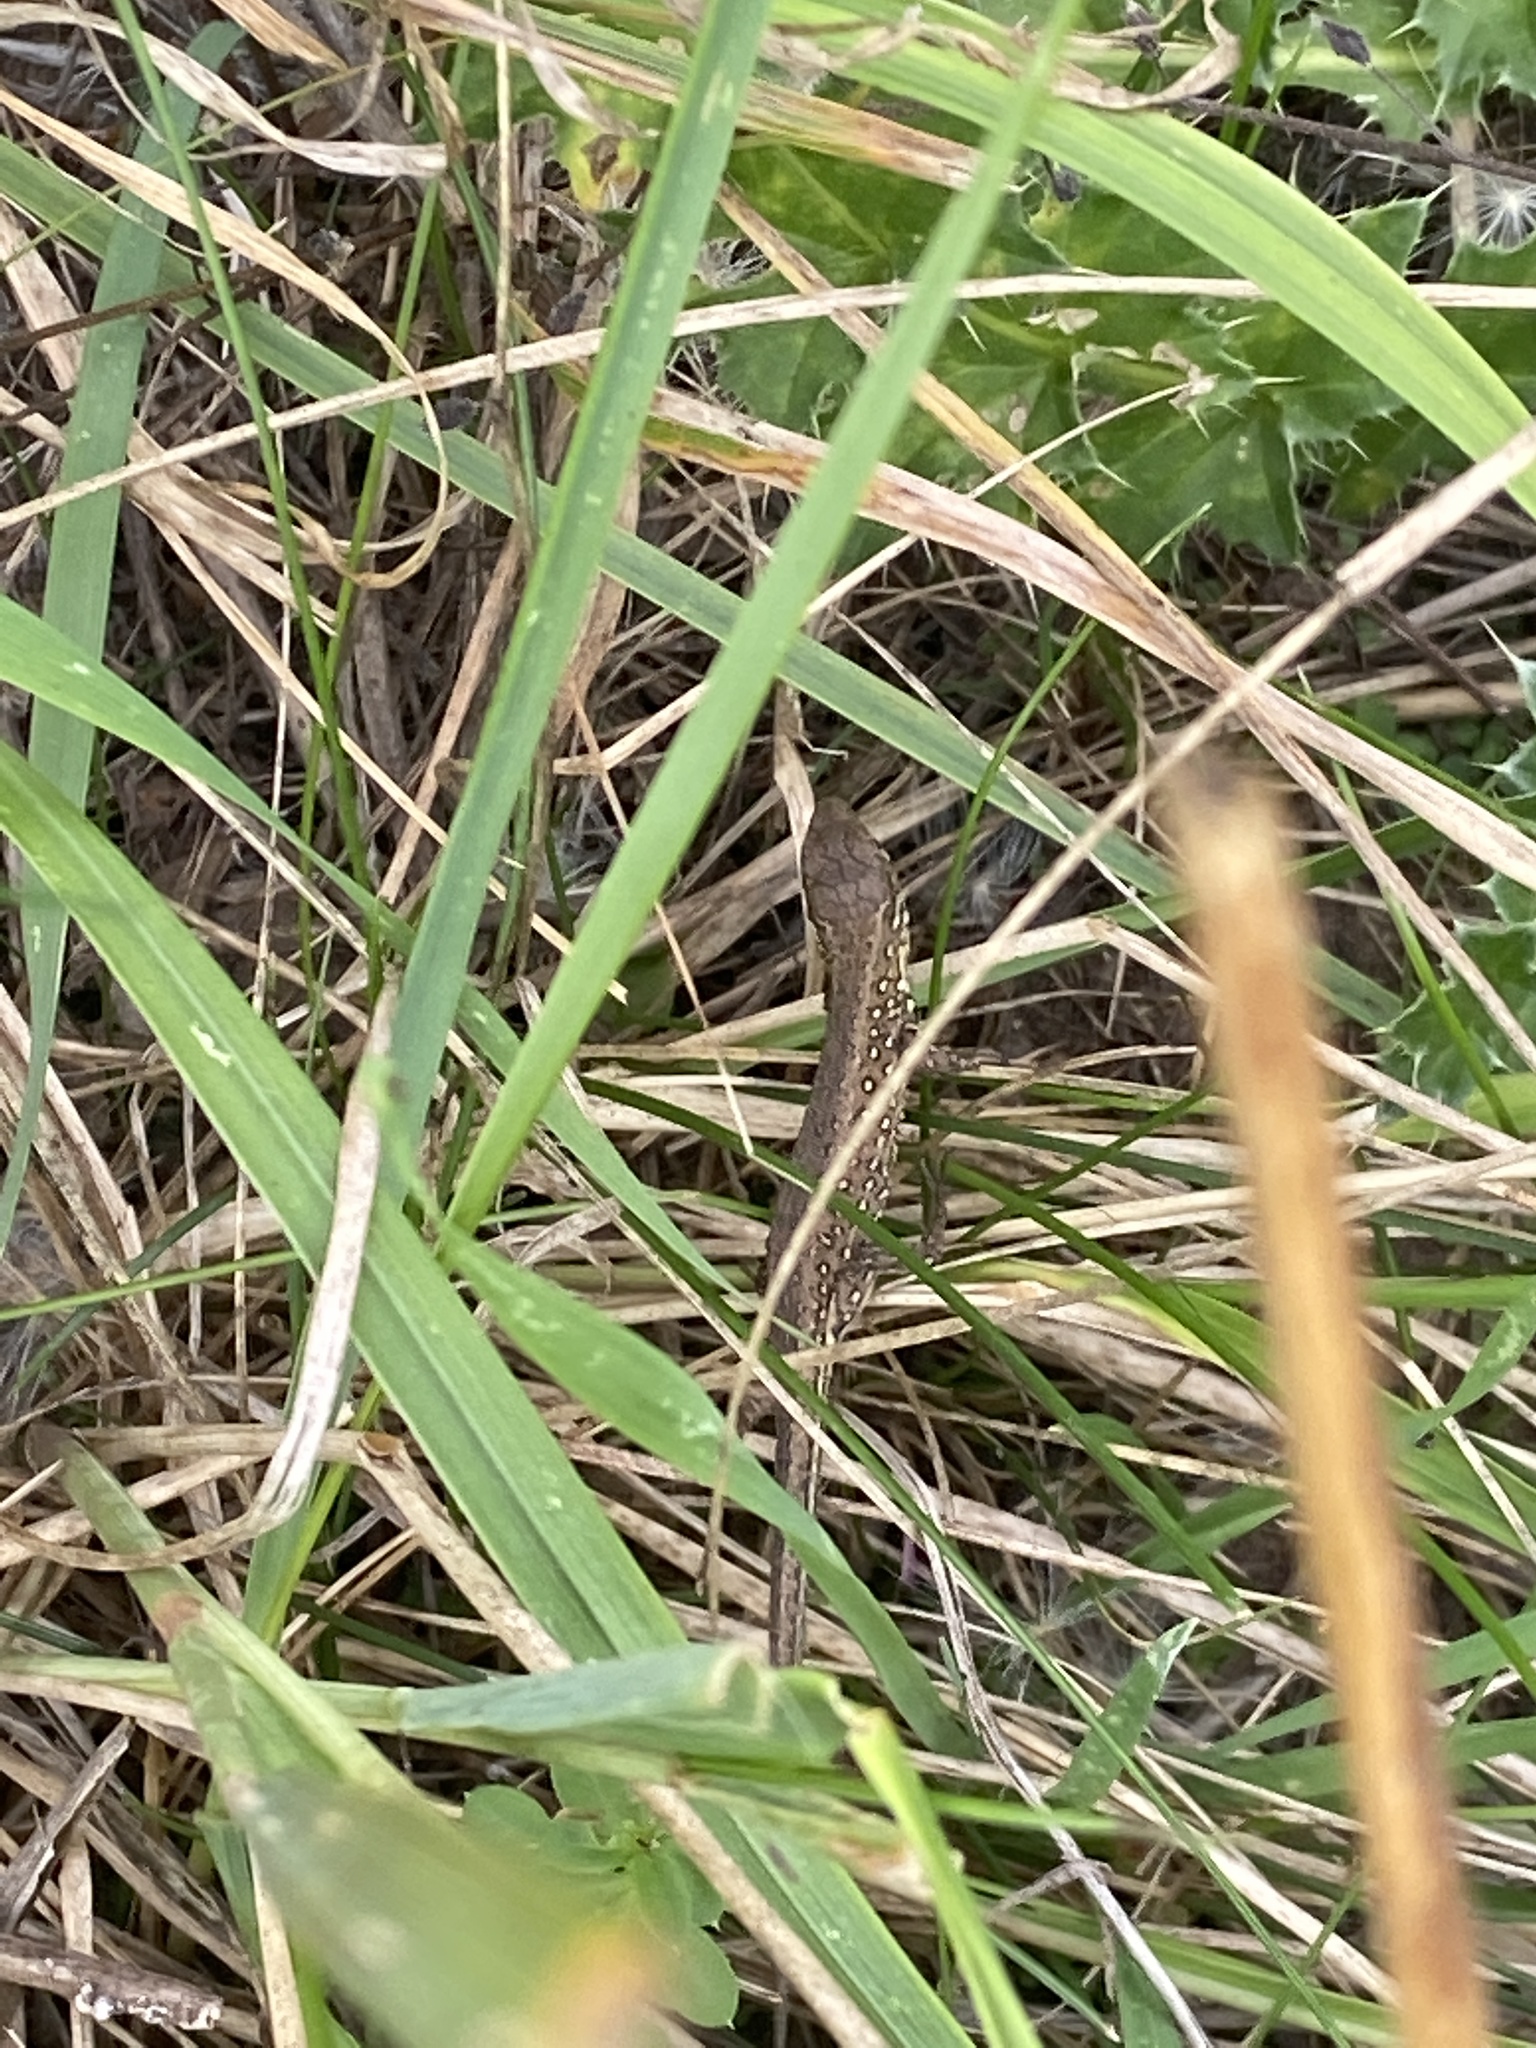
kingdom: Animalia
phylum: Chordata
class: Squamata
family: Lacertidae
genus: Lacerta
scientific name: Lacerta agilis
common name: Sand lizard
